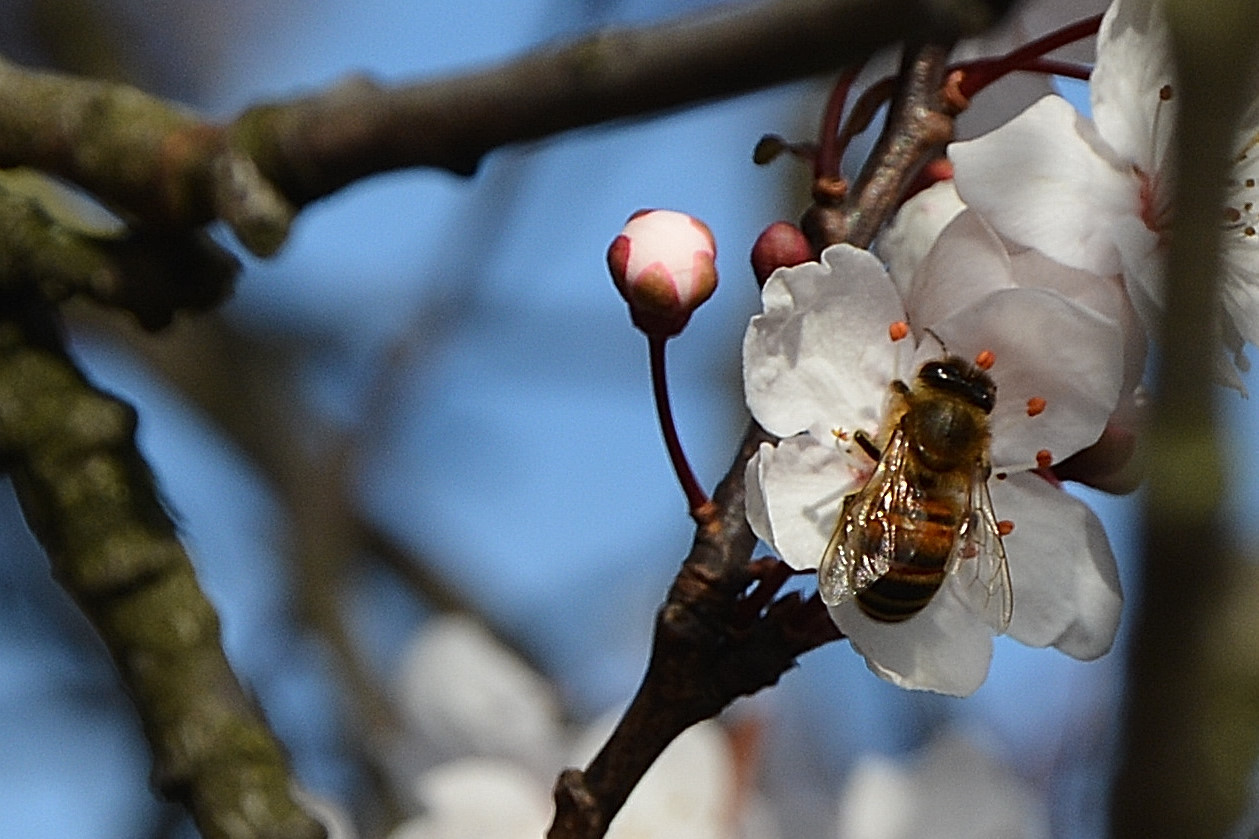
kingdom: Animalia
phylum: Arthropoda
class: Insecta
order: Hymenoptera
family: Apidae
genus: Apis
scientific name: Apis mellifera
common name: Honey bee
